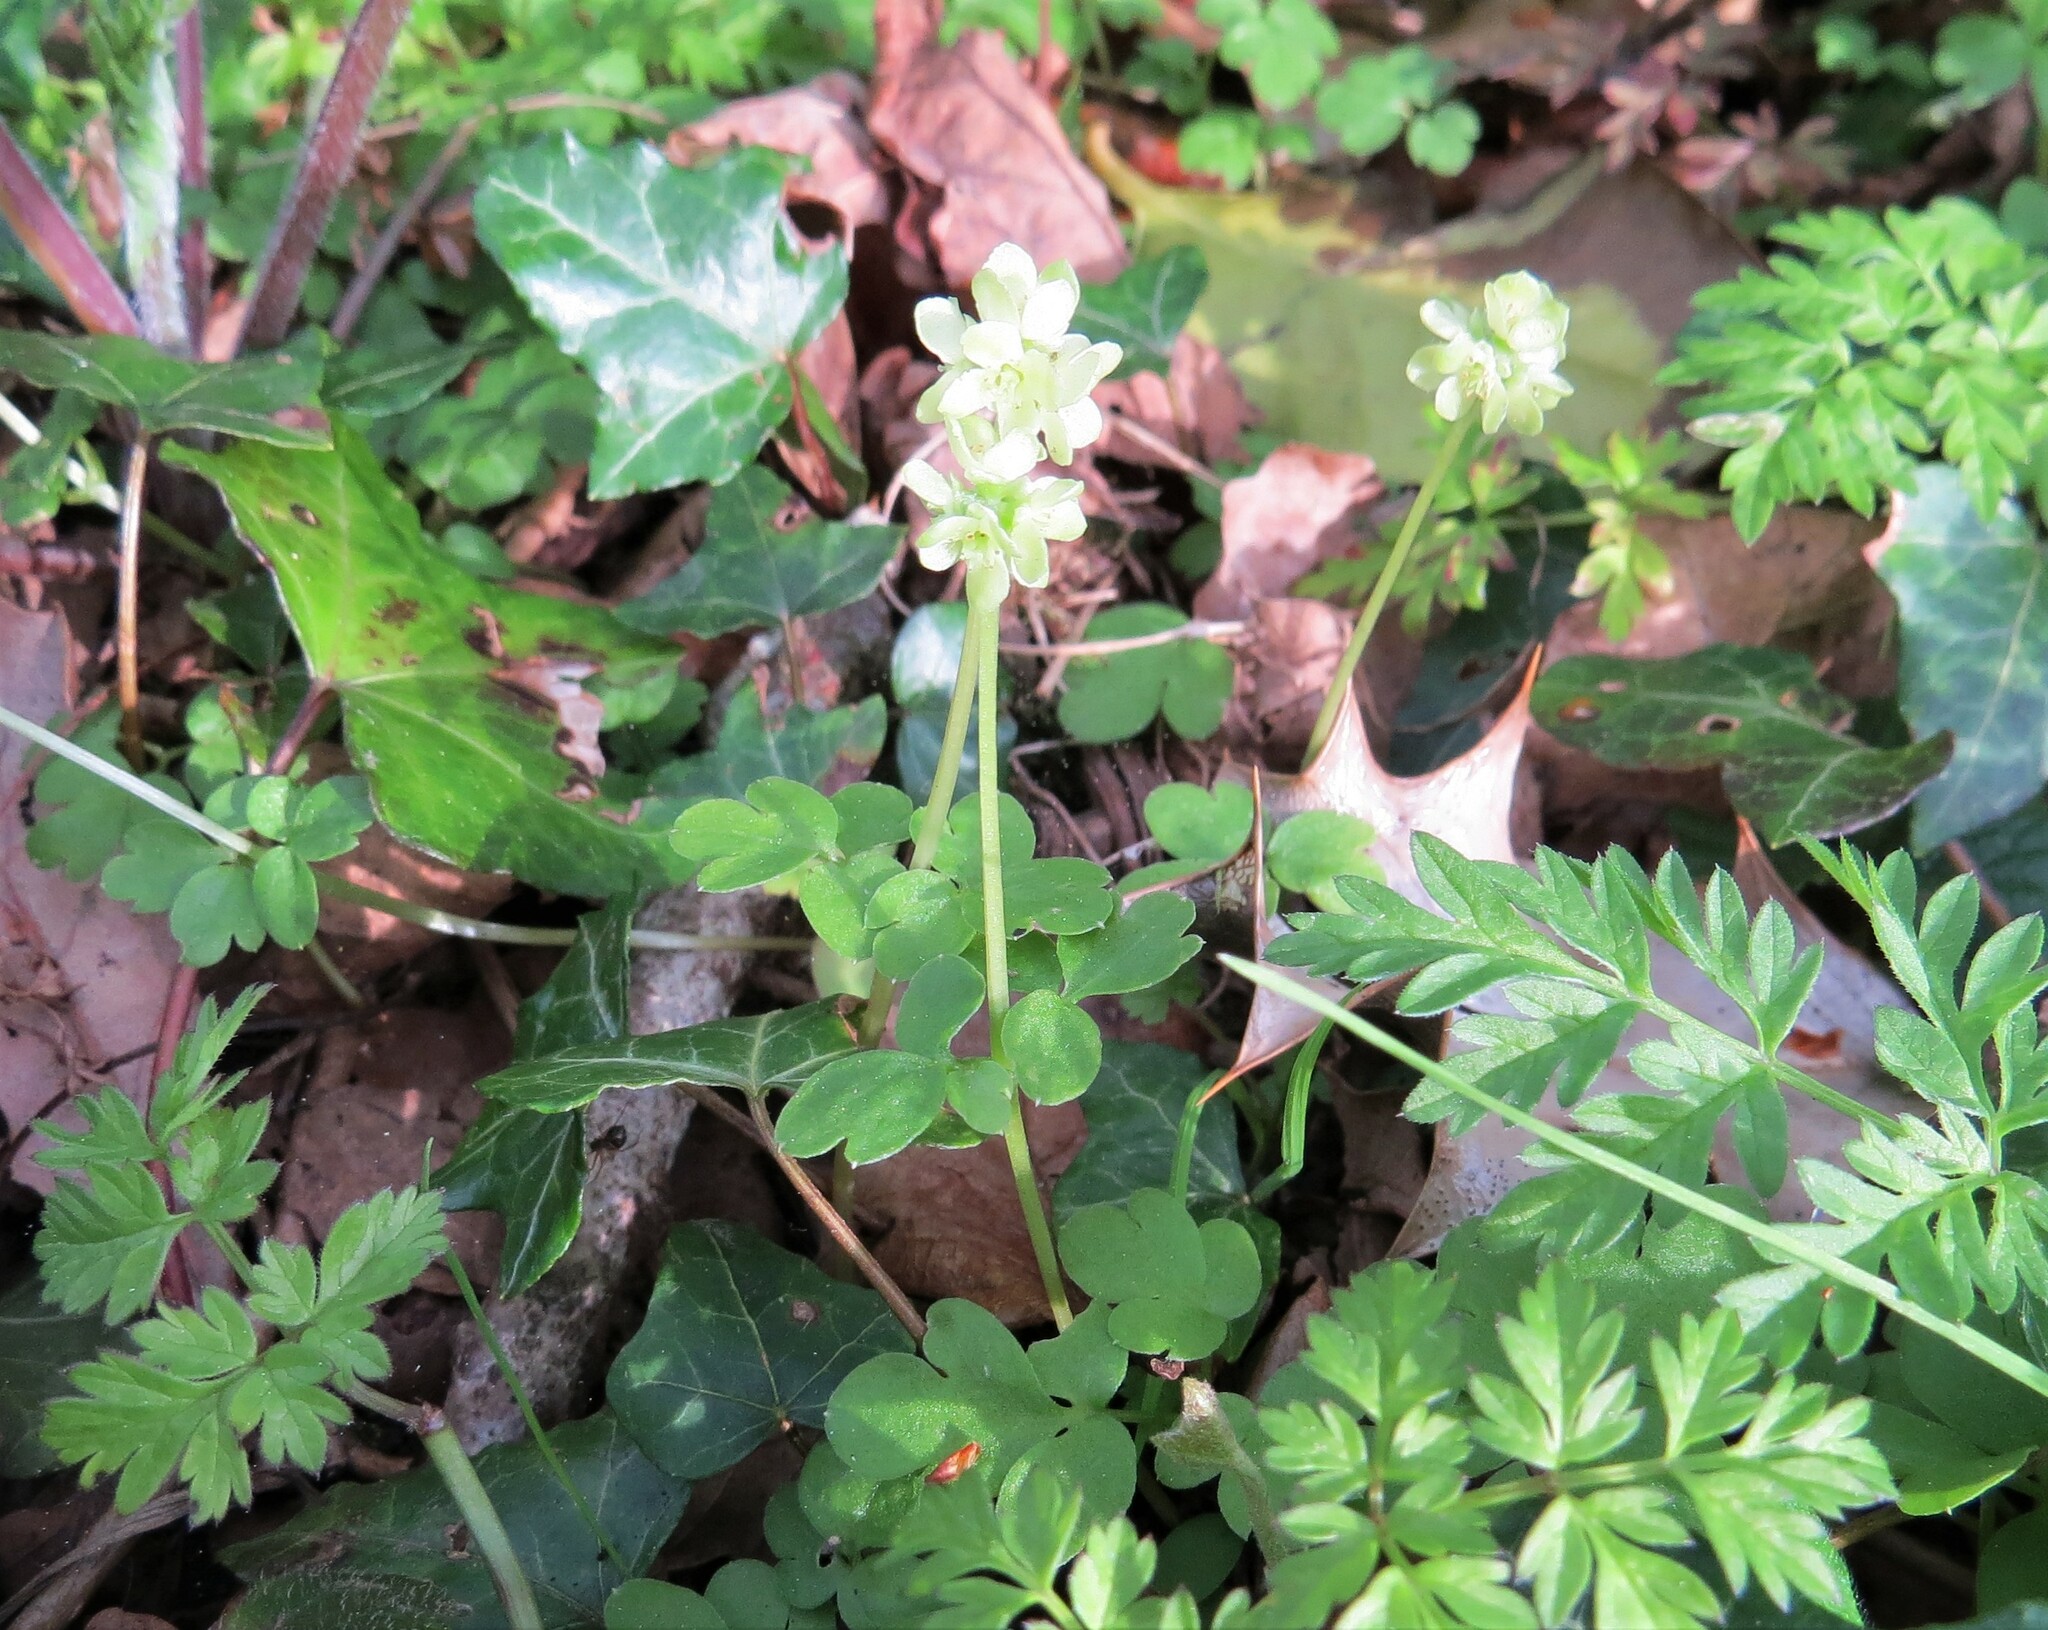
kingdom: Plantae
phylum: Tracheophyta
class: Magnoliopsida
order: Dipsacales
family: Viburnaceae
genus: Adoxa
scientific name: Adoxa moschatellina
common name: Moschatel
